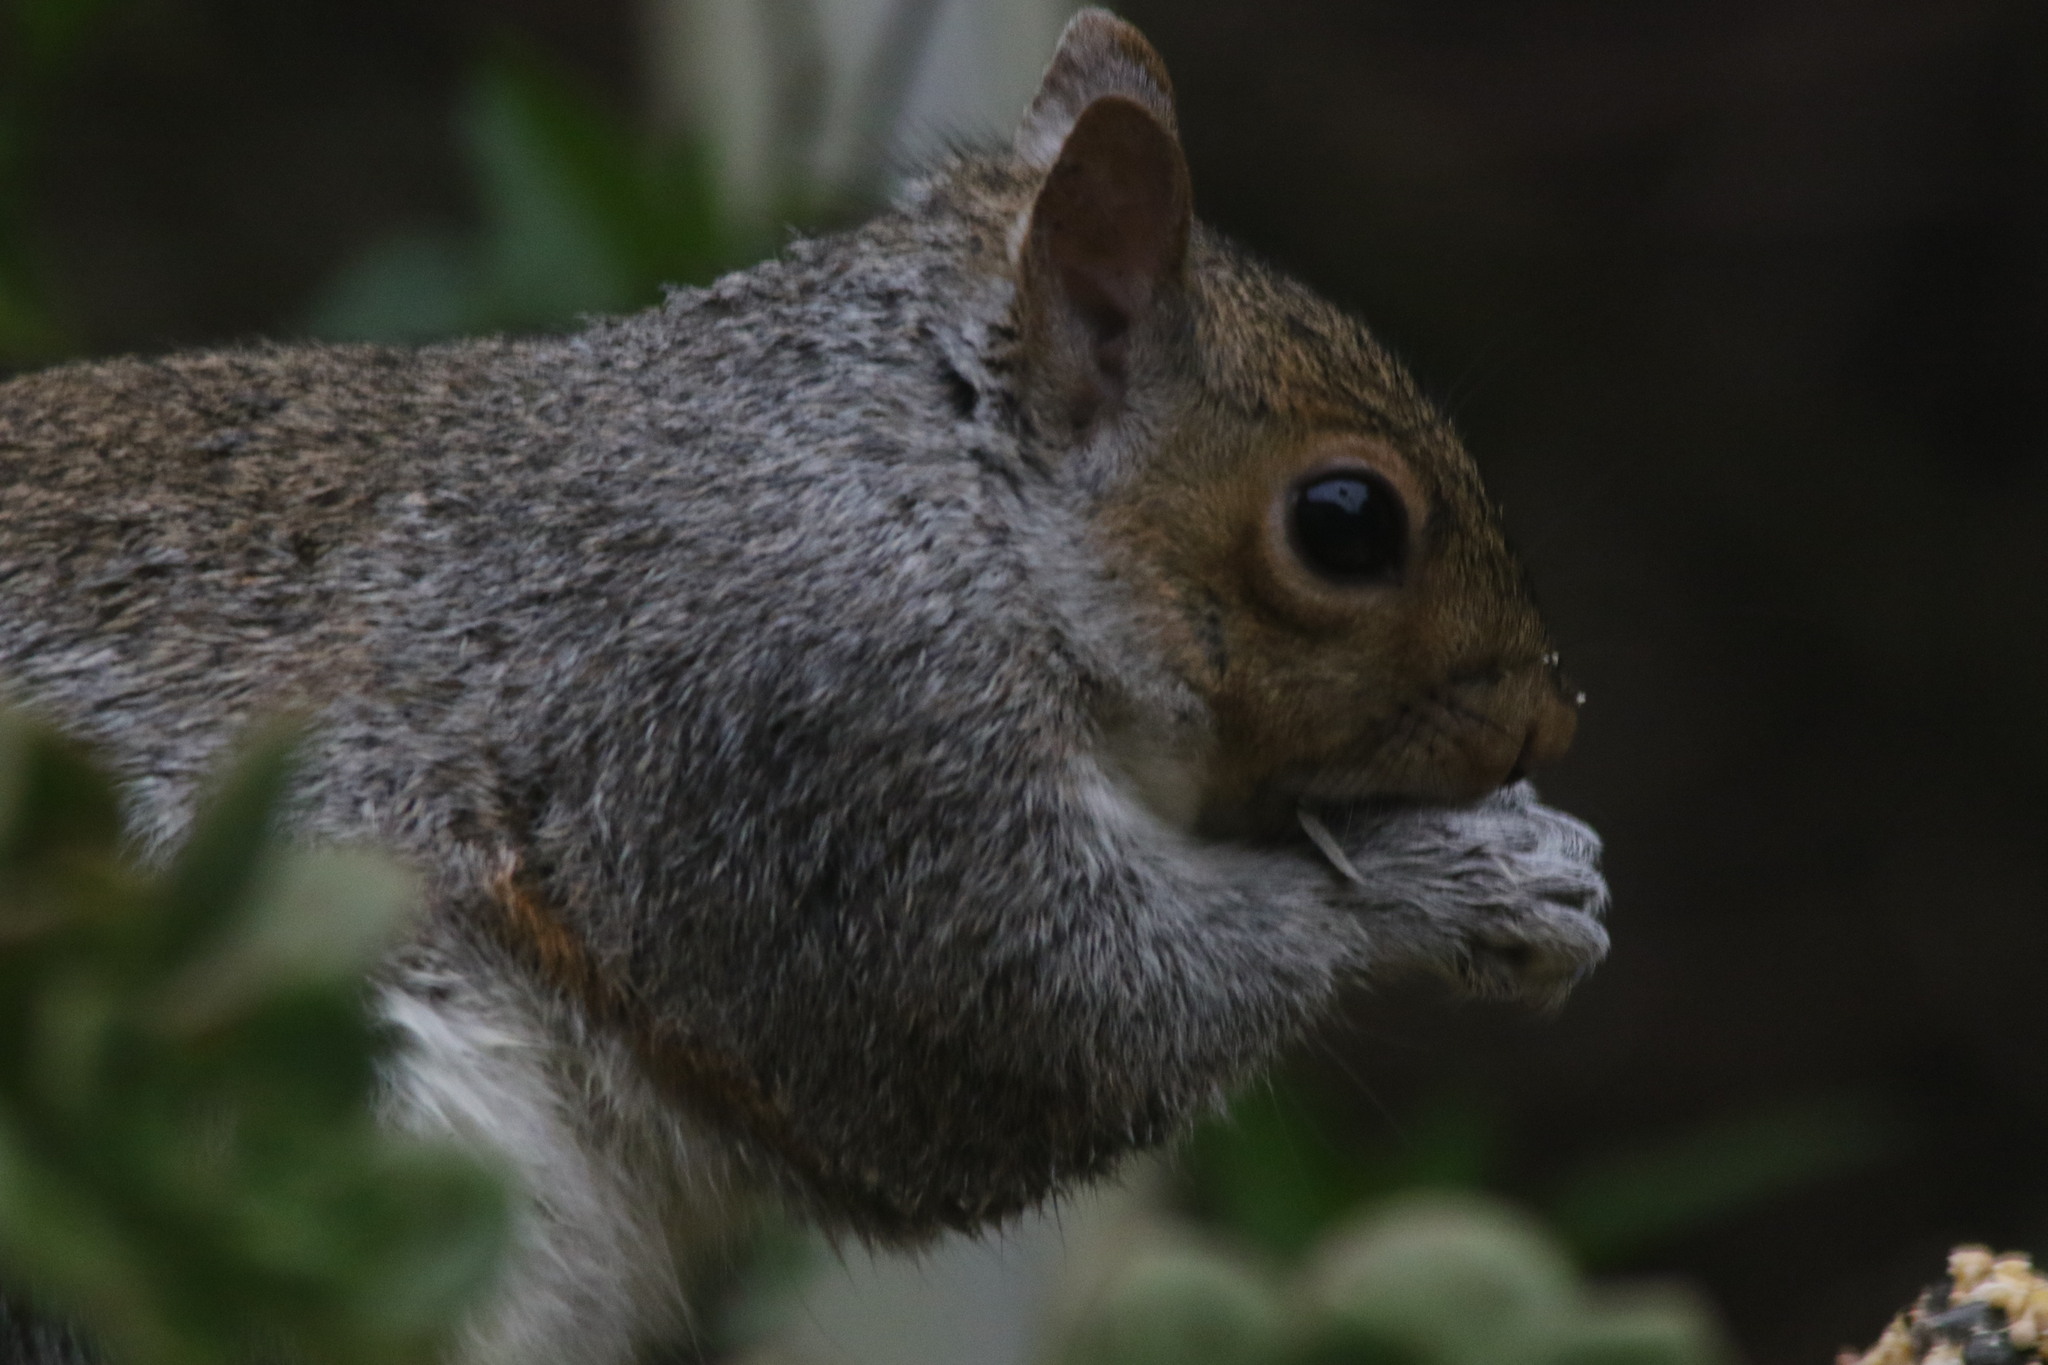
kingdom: Animalia
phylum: Chordata
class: Mammalia
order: Rodentia
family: Sciuridae
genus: Sciurus
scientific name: Sciurus carolinensis
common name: Eastern gray squirrel
